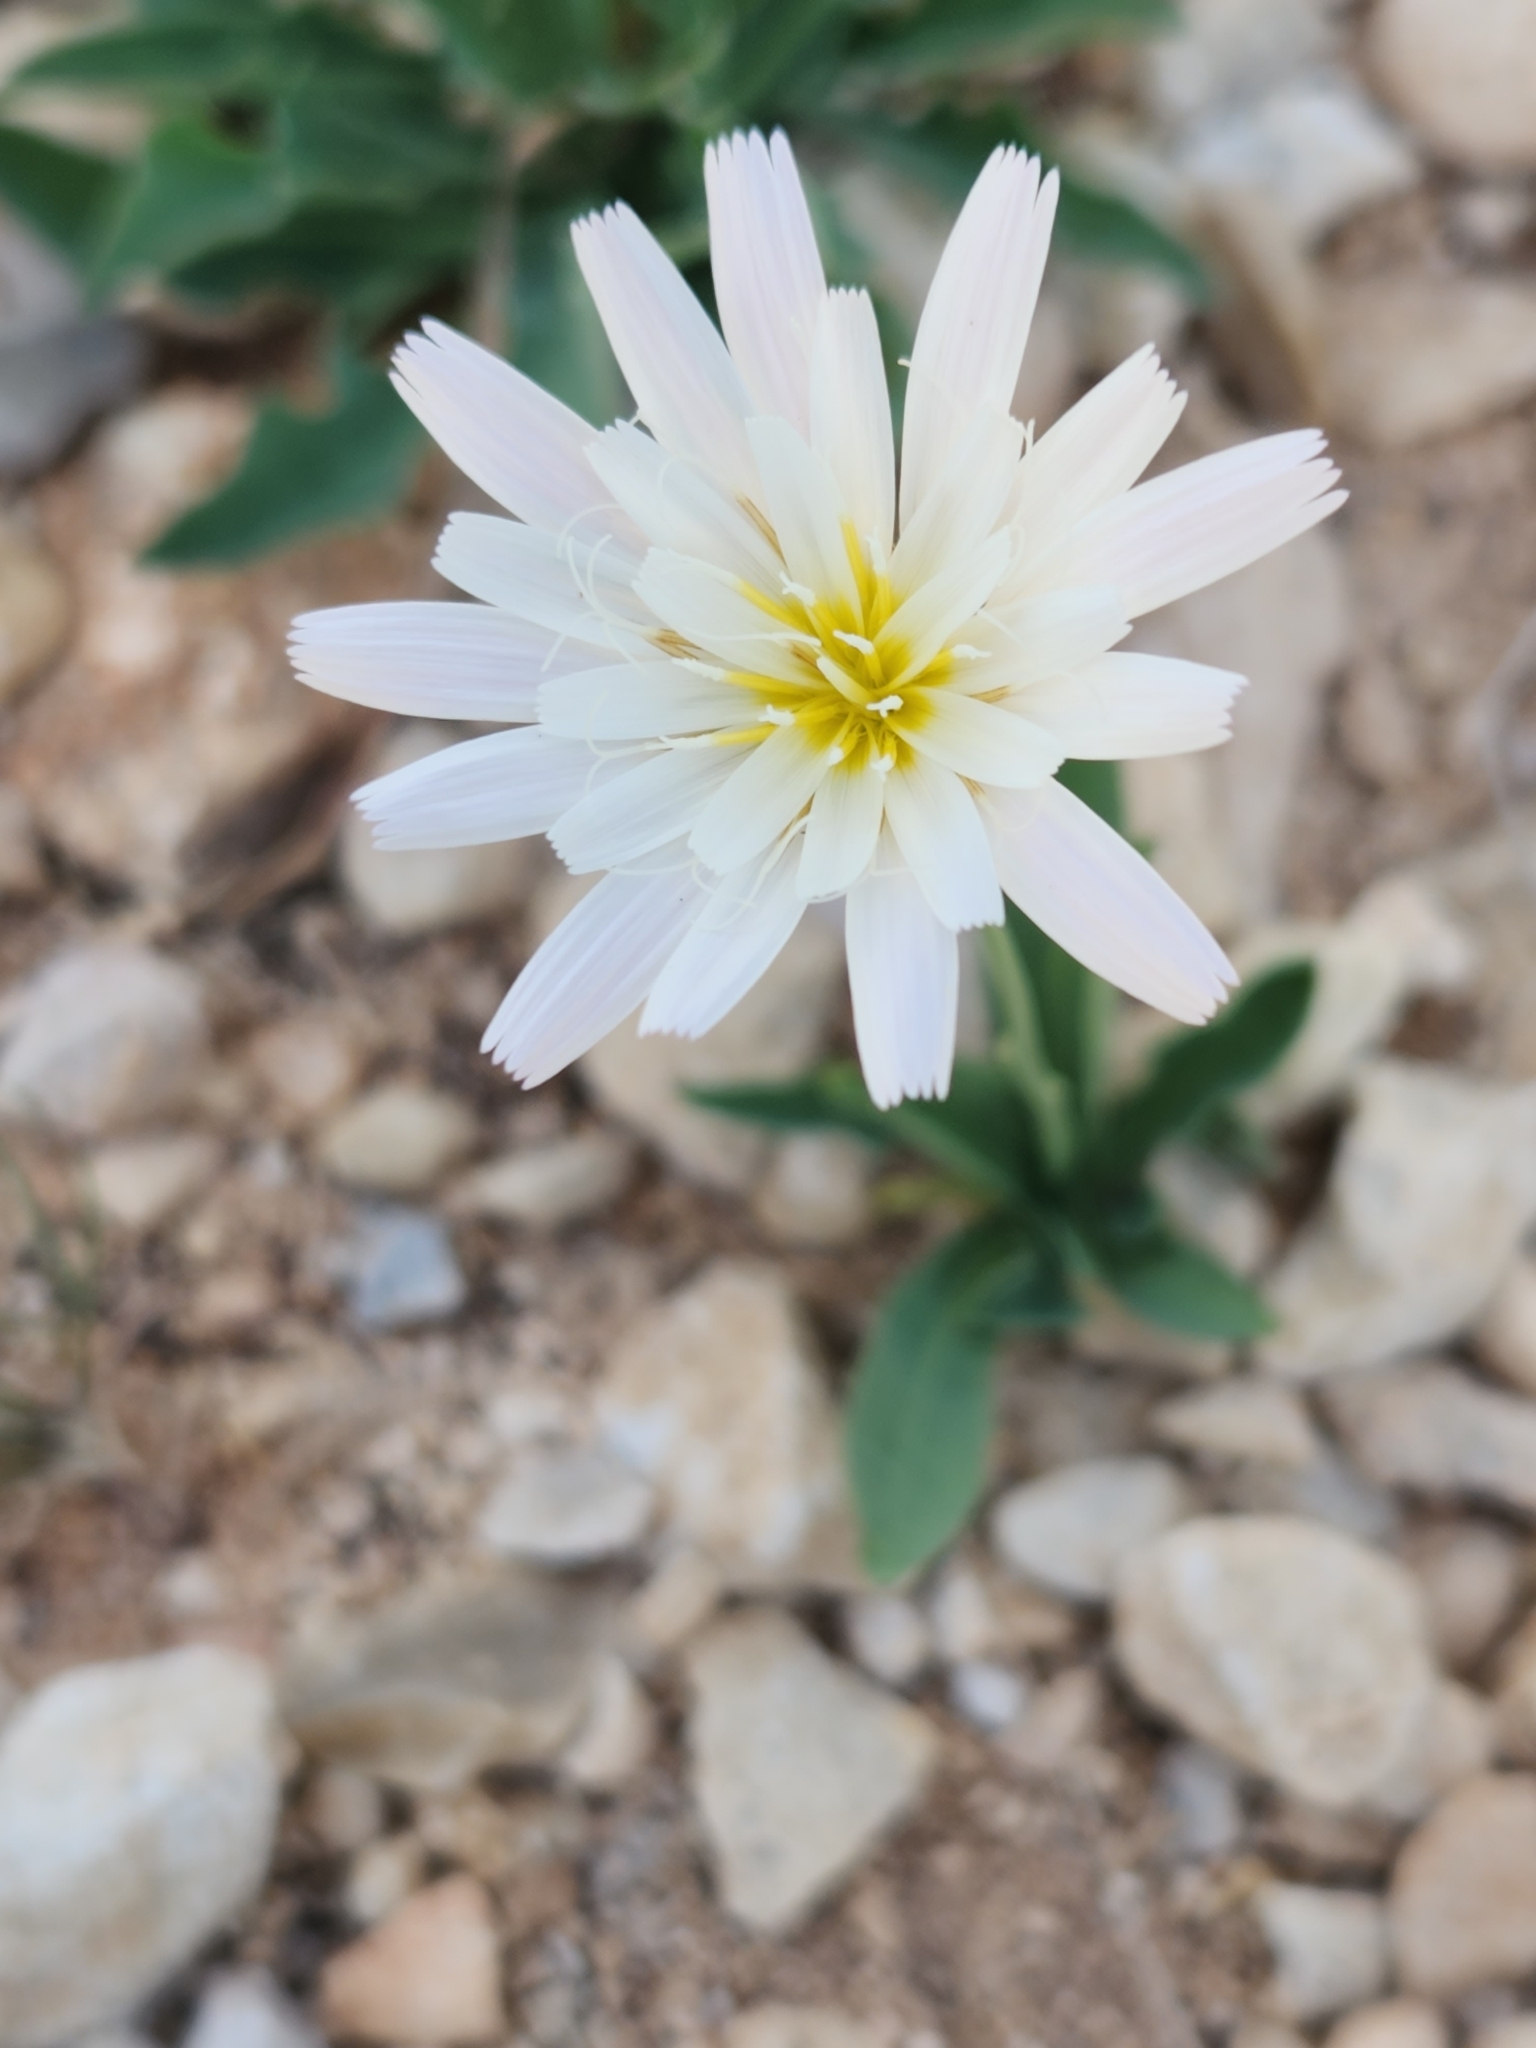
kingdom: Plantae
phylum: Tracheophyta
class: Magnoliopsida
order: Asterales
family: Asteraceae
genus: Pinaropappus
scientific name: Pinaropappus roseus
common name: Rock-lettuce
